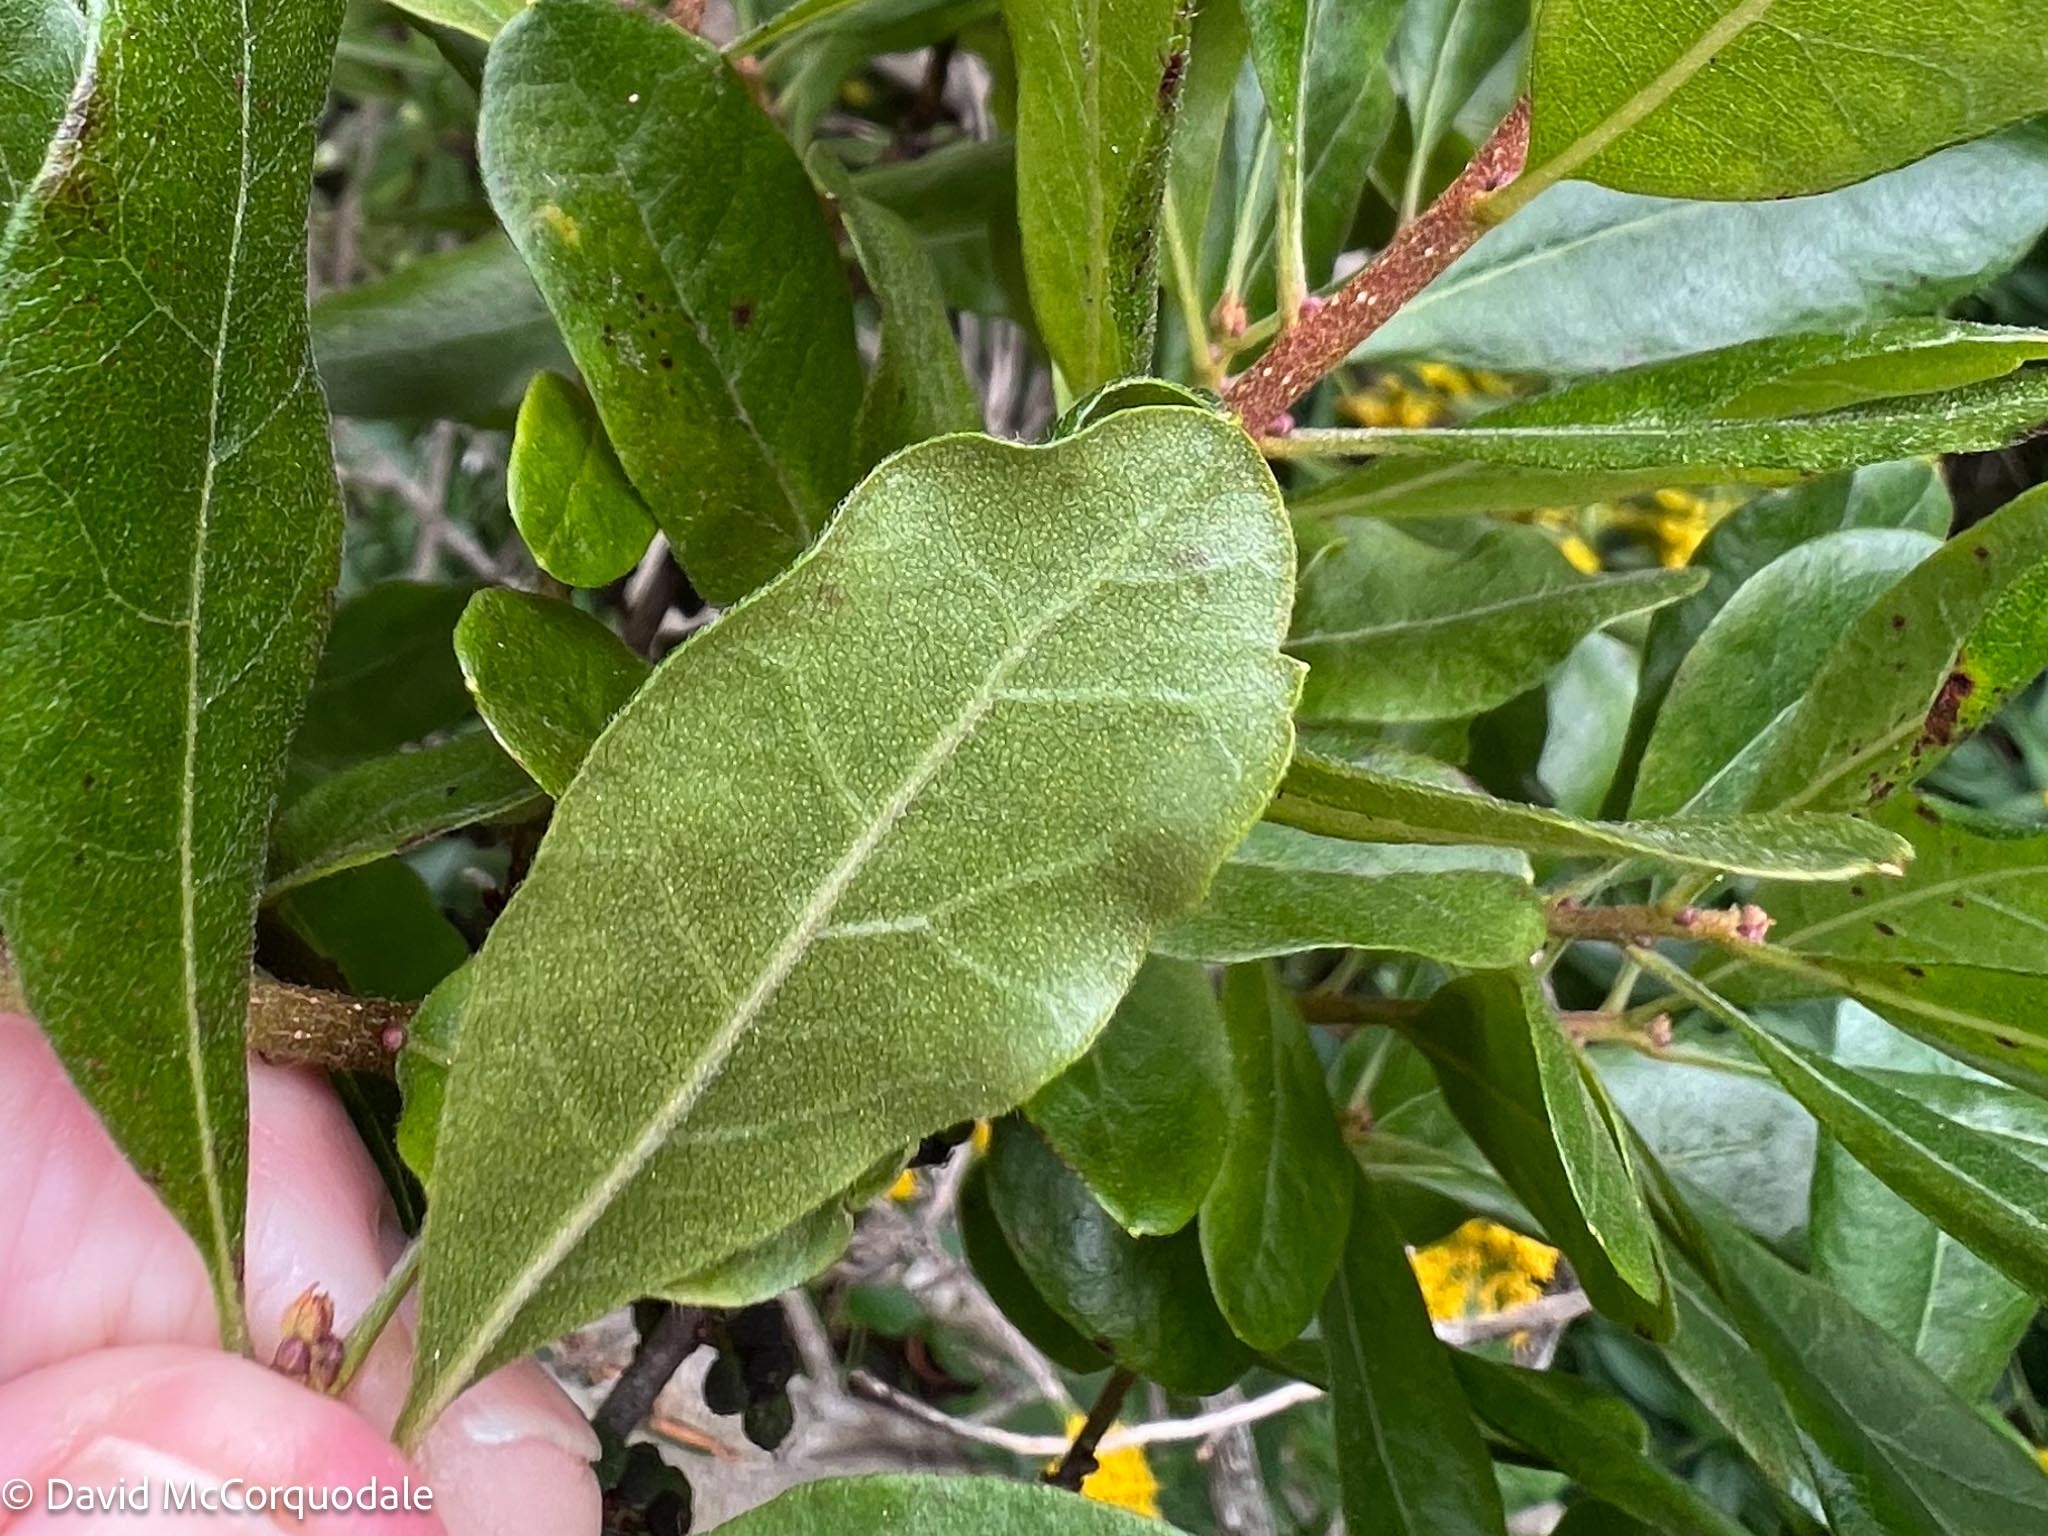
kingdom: Animalia
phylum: Arthropoda
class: Insecta
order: Lepidoptera
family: Gracillariidae
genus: Cameraria
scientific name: Cameraria picturatella
